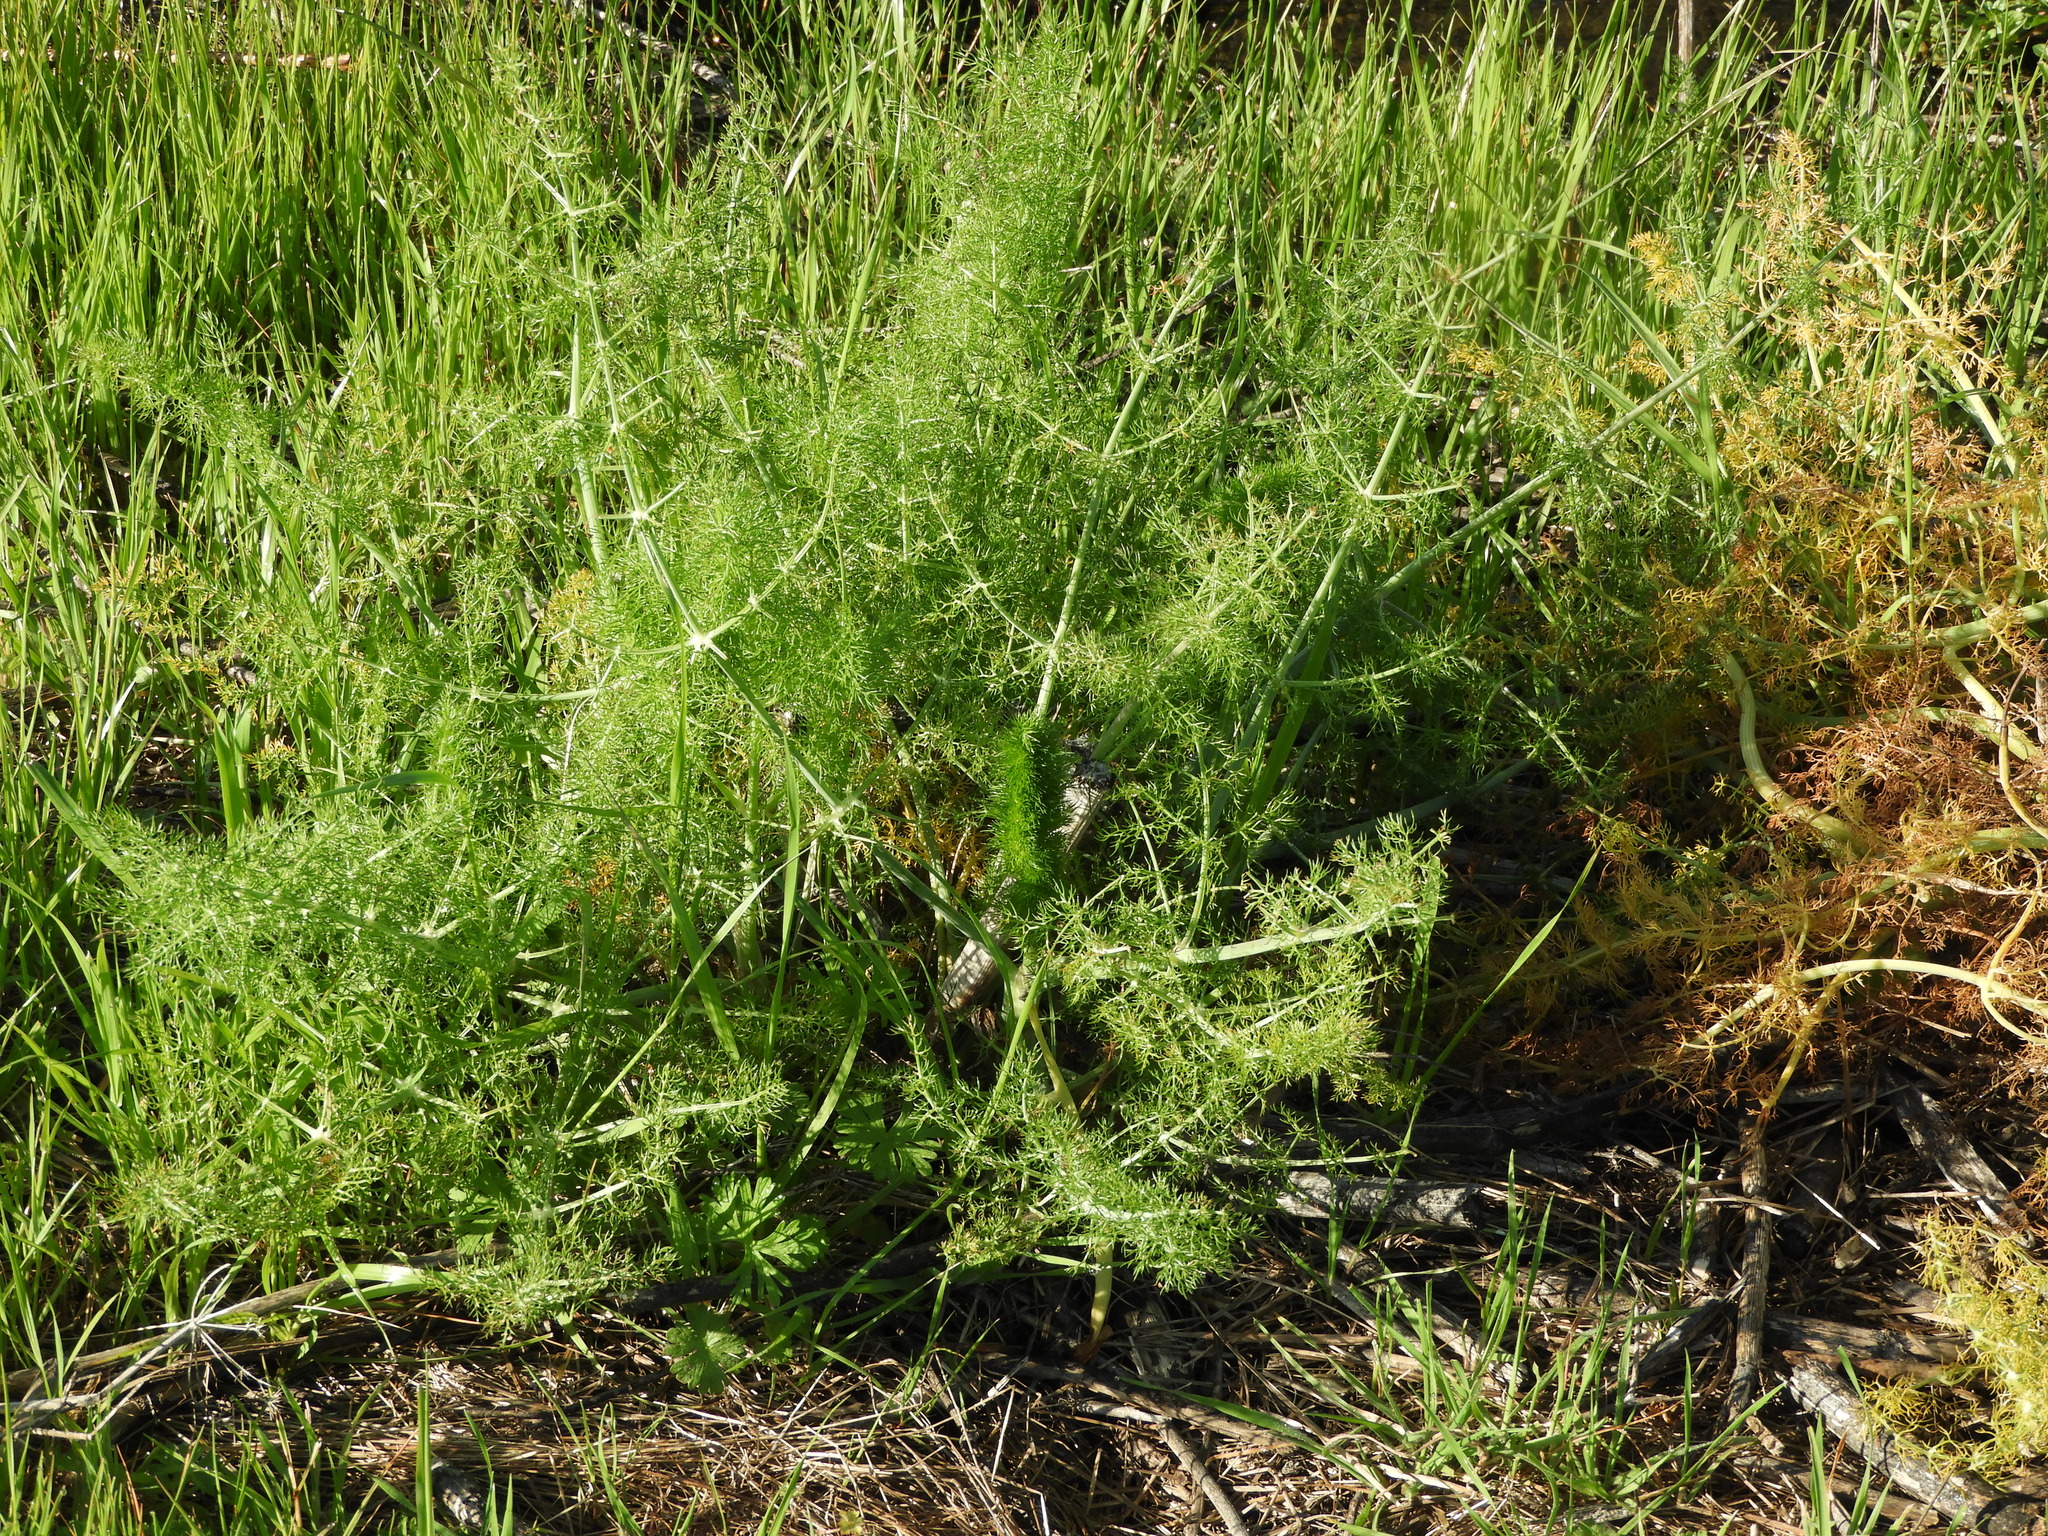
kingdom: Plantae
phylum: Tracheophyta
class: Magnoliopsida
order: Apiales
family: Apiaceae
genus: Foeniculum
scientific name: Foeniculum vulgare
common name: Fennel
